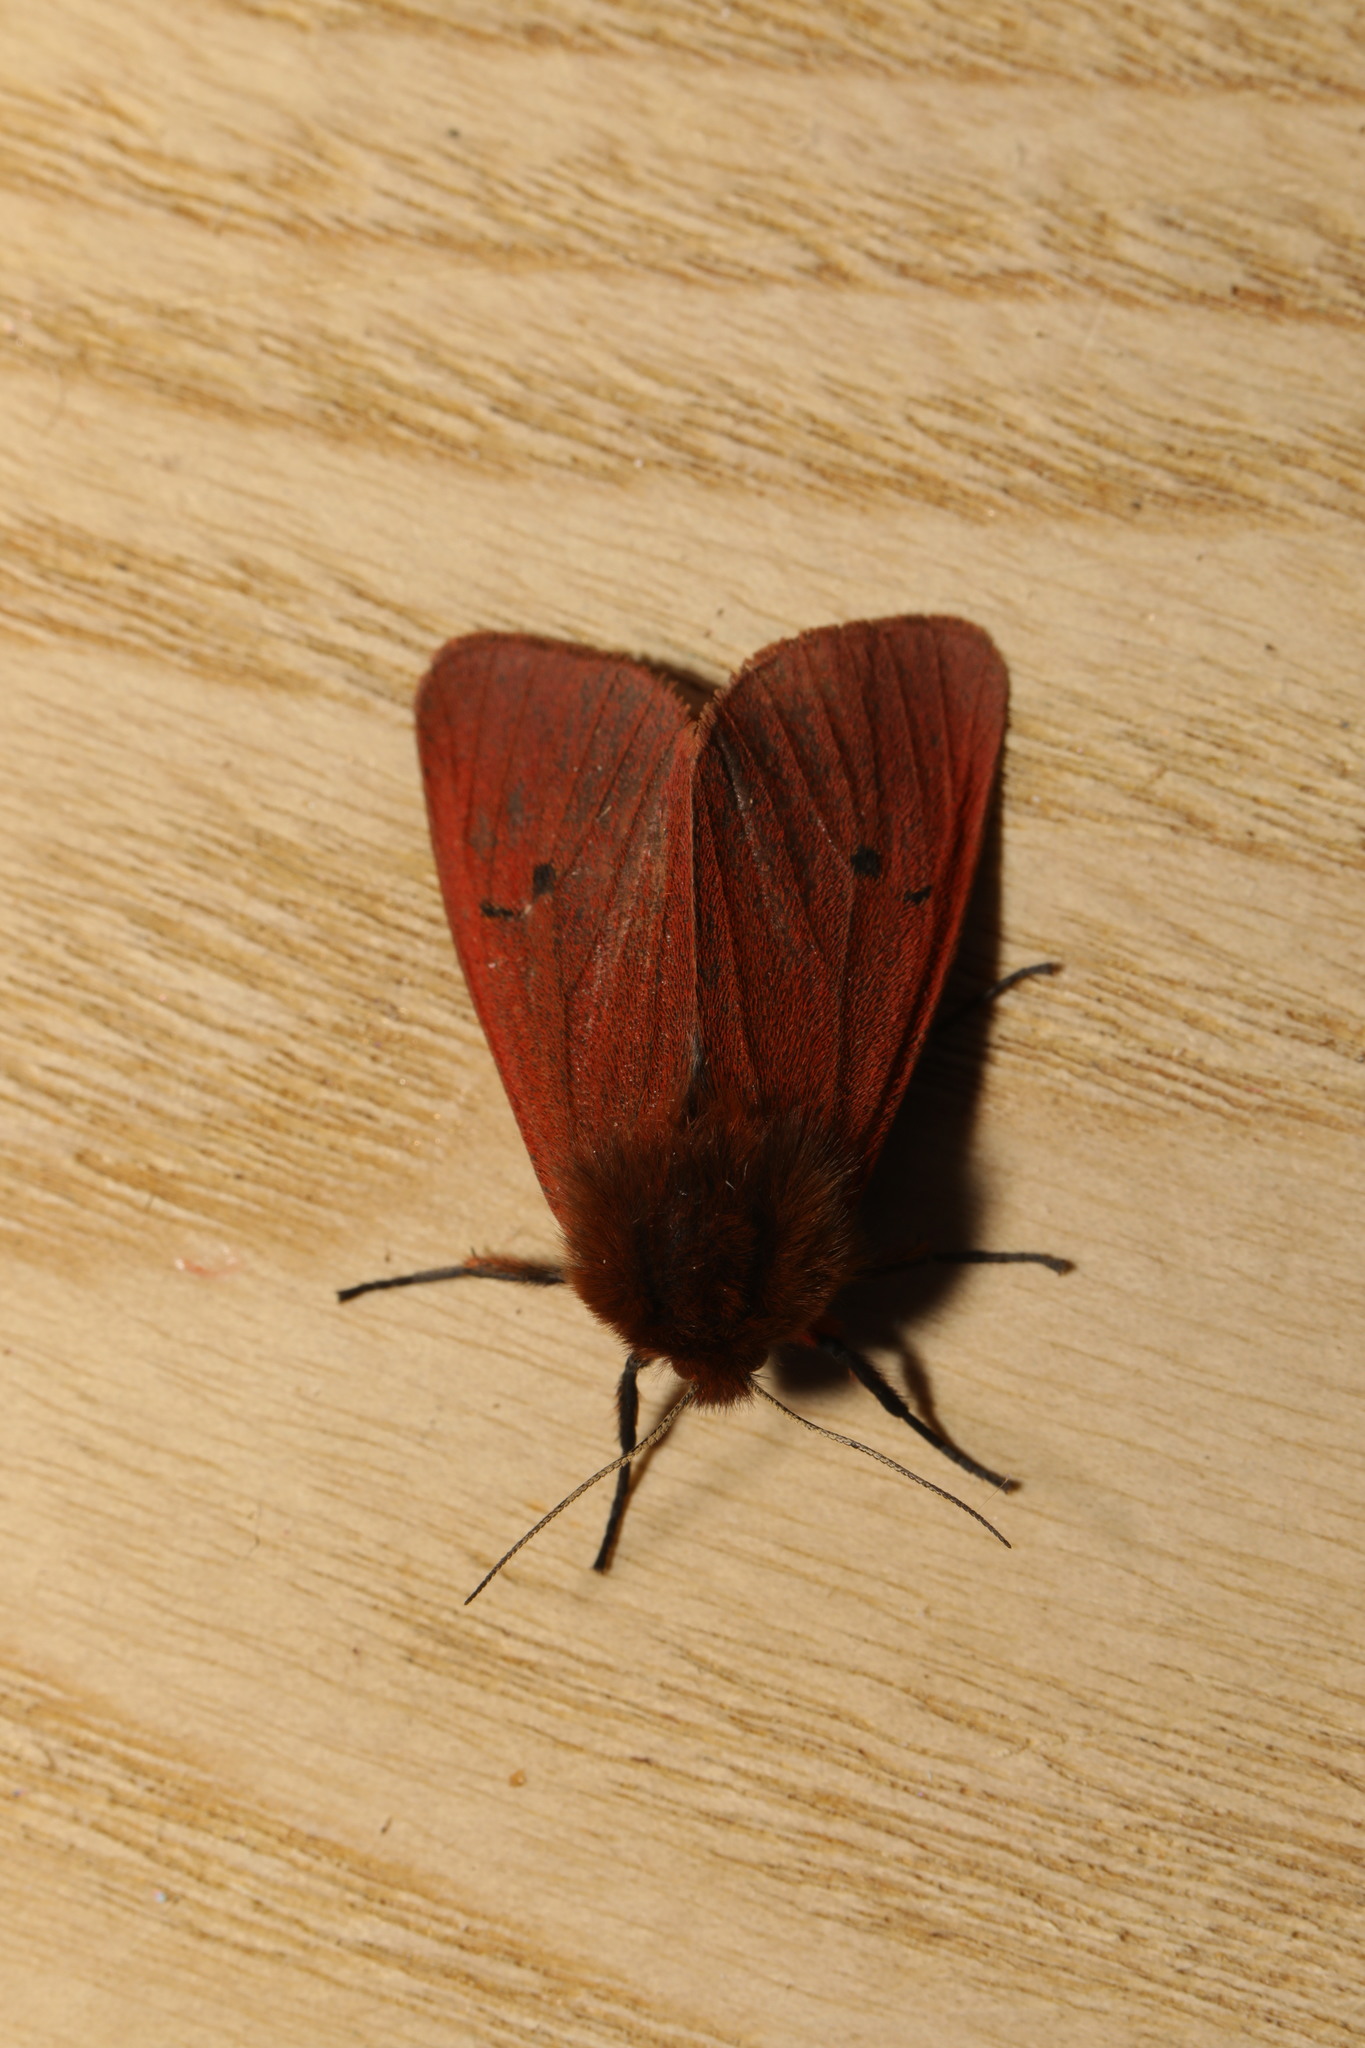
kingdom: Animalia
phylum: Arthropoda
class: Insecta
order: Lepidoptera
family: Erebidae
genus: Phragmatobia
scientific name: Phragmatobia fuliginosa
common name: Ruby tiger
